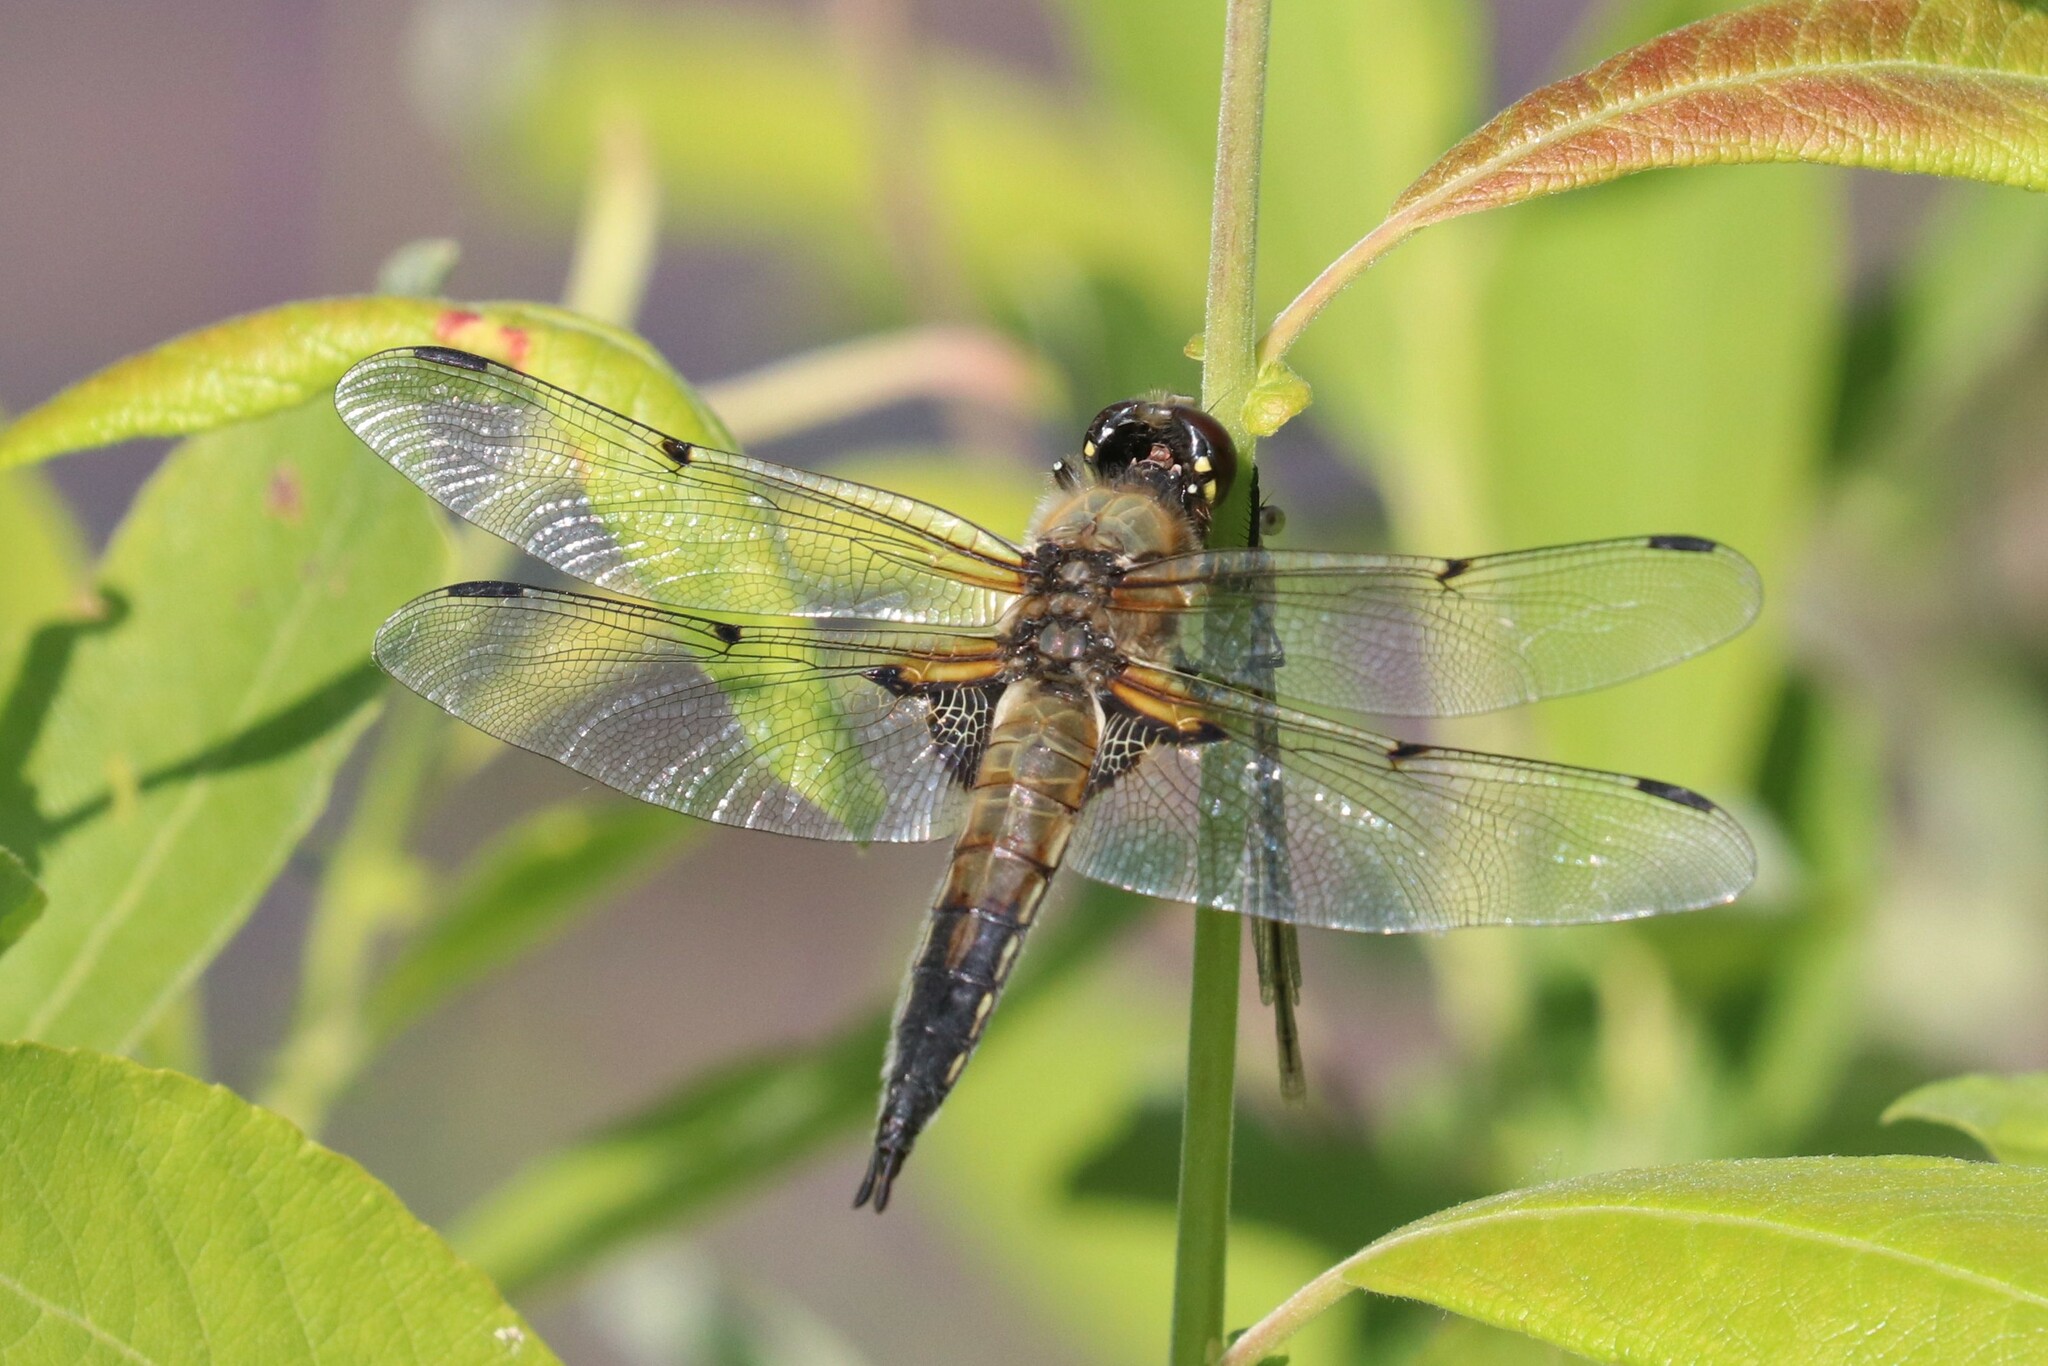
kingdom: Animalia
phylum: Arthropoda
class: Insecta
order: Odonata
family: Libellulidae
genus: Libellula
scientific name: Libellula quadrimaculata
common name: Four-spotted chaser
